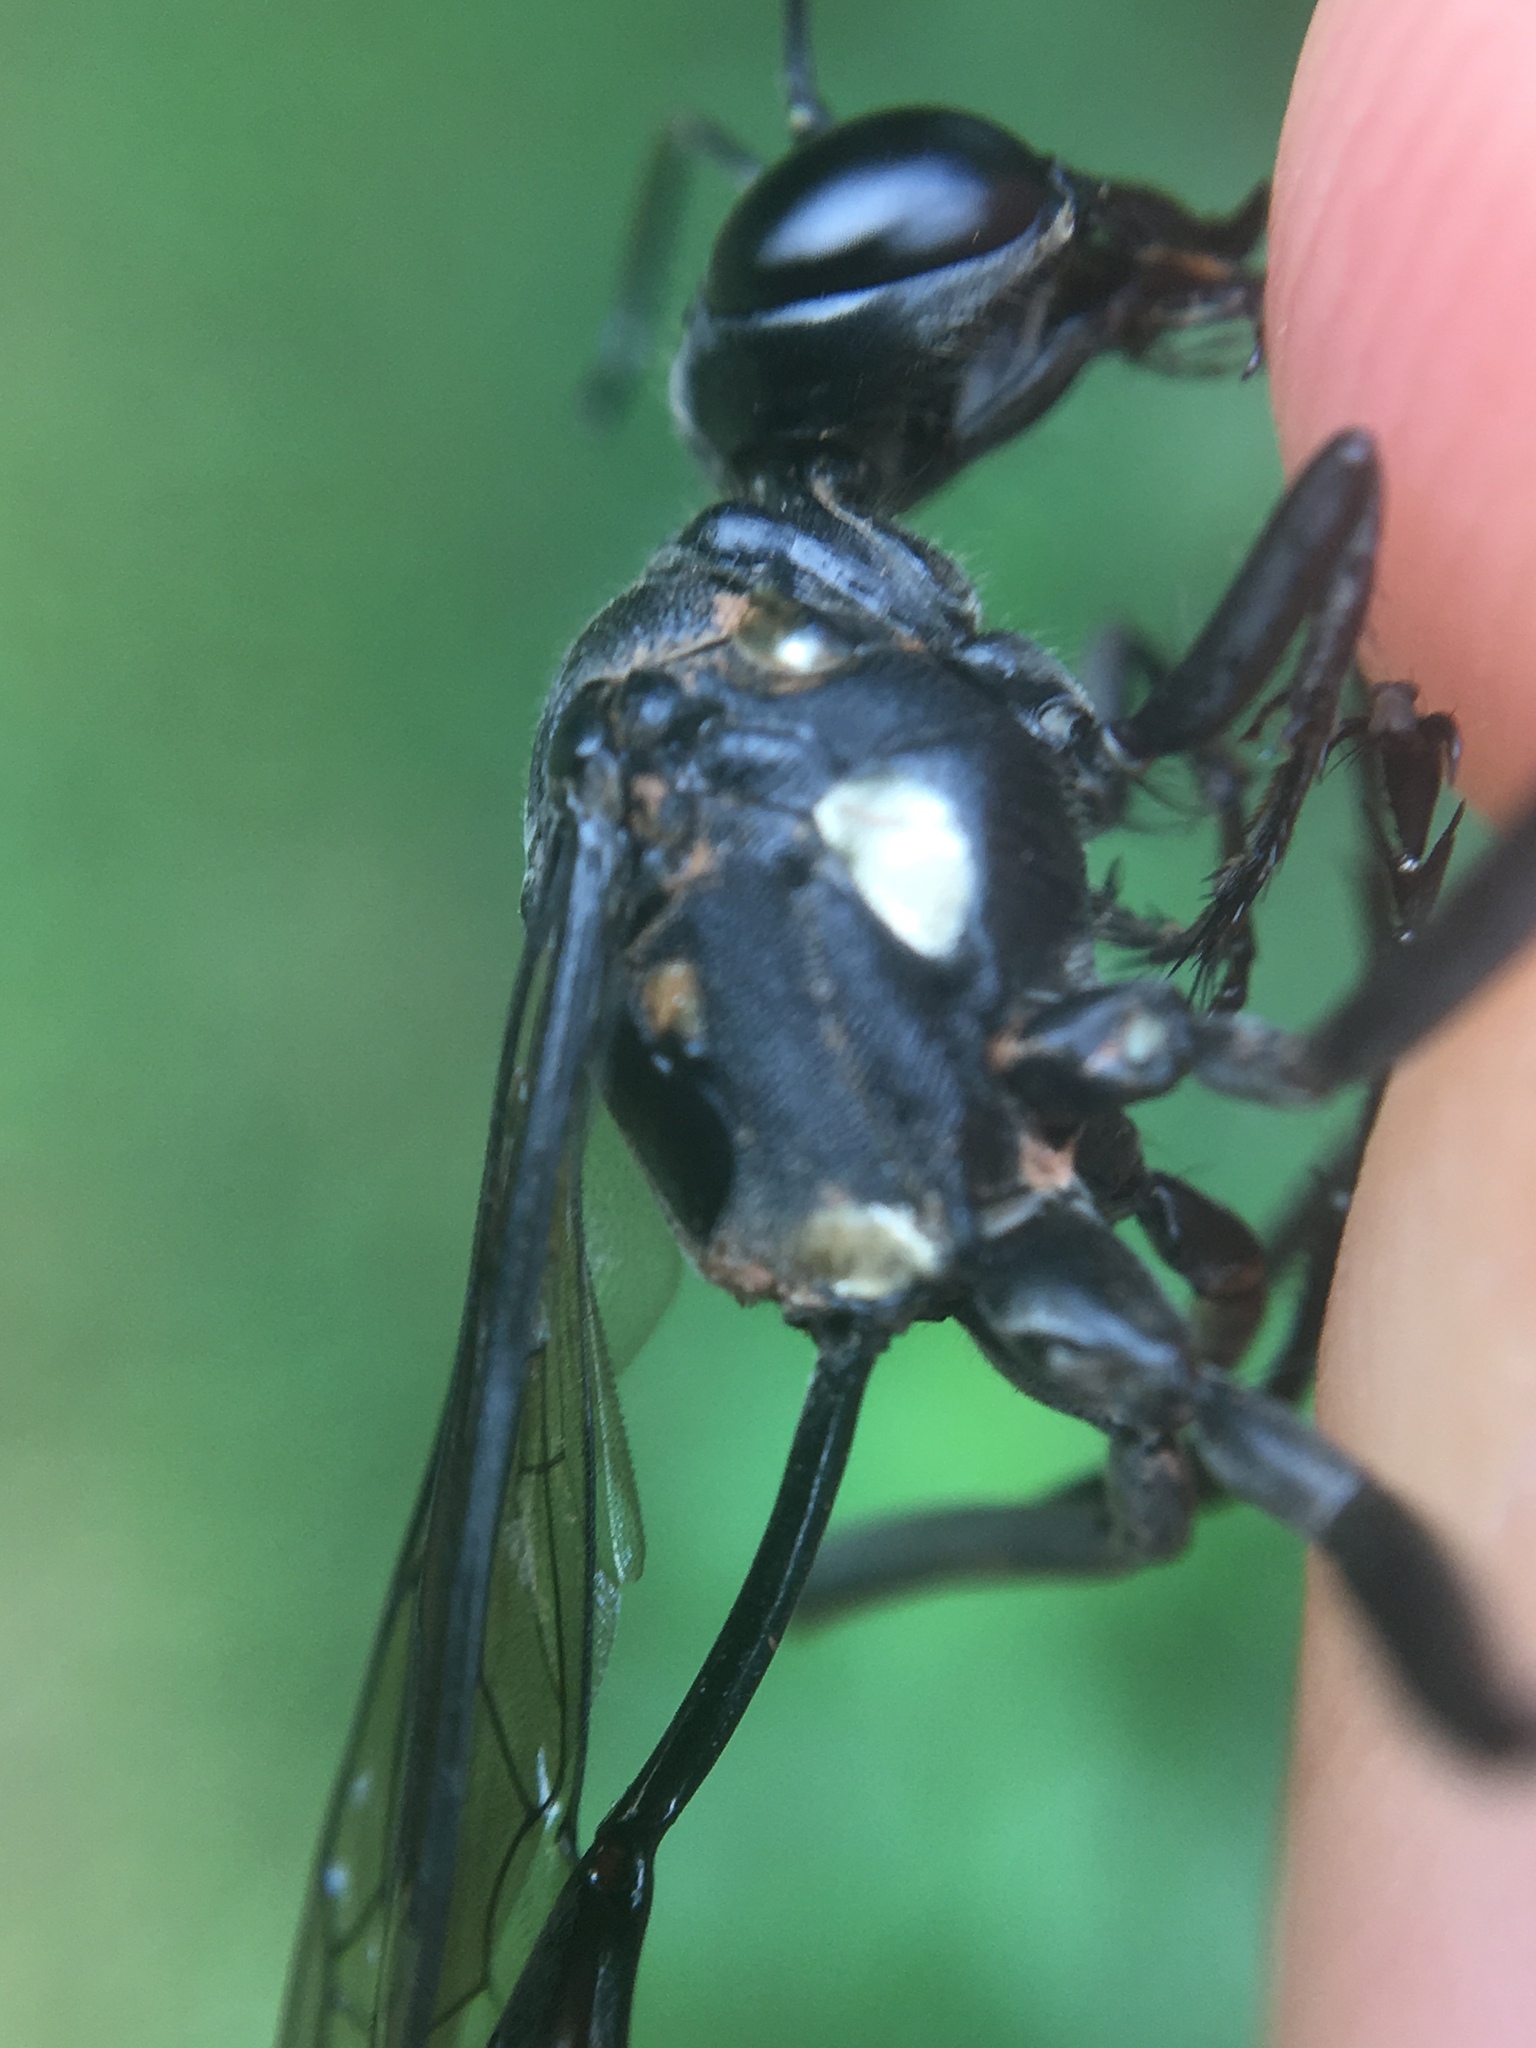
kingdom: Animalia
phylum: Arthropoda
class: Insecta
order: Hymenoptera
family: Sphecidae
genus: Eremnophila
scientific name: Eremnophila aureonotata
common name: Gold-marked thread-waisted wasp
